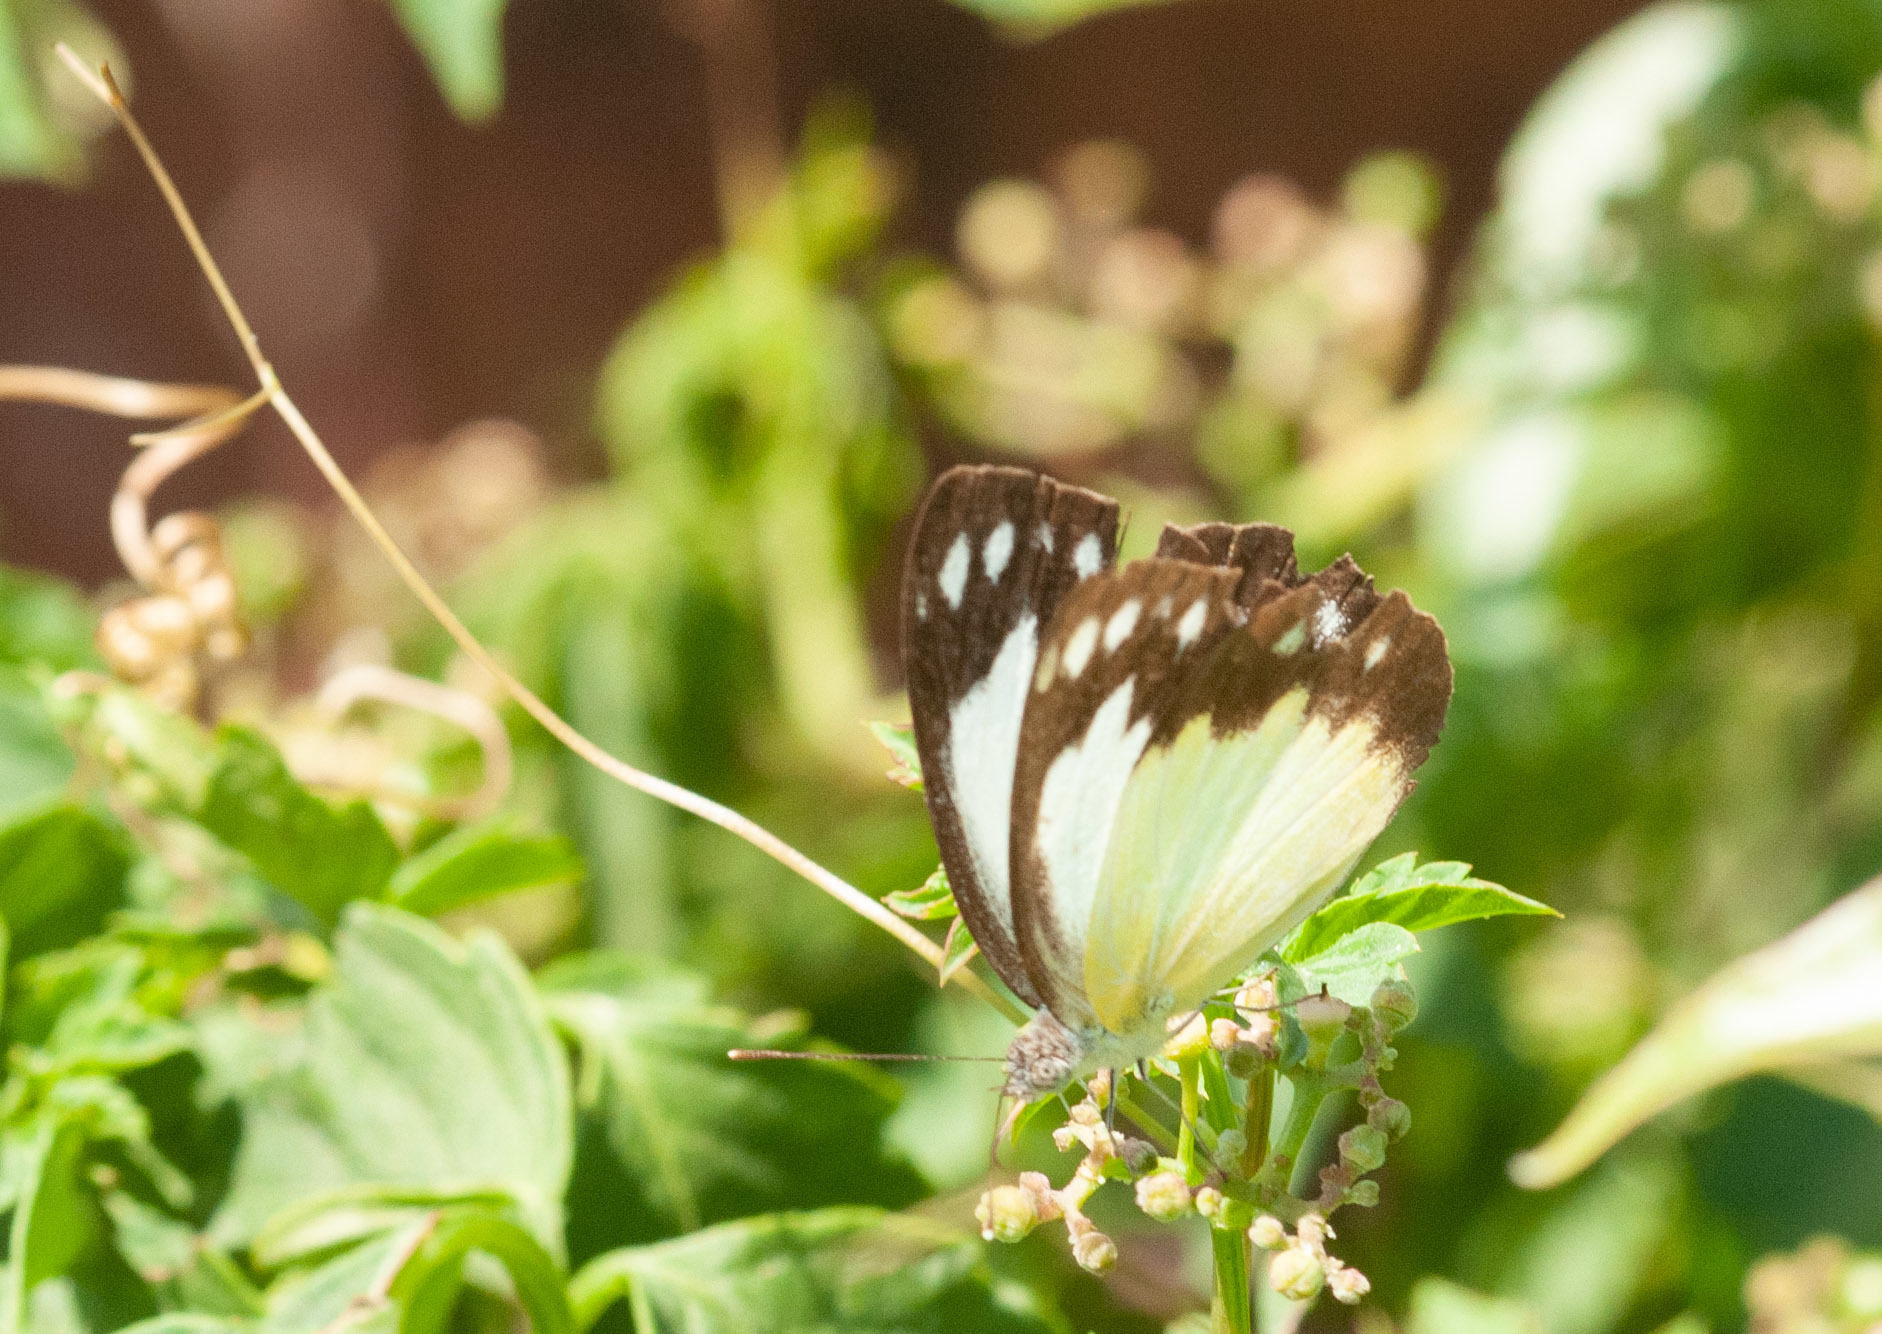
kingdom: Animalia
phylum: Arthropoda
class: Insecta
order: Lepidoptera
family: Pieridae
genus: Cepora
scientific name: Cepora perimale
